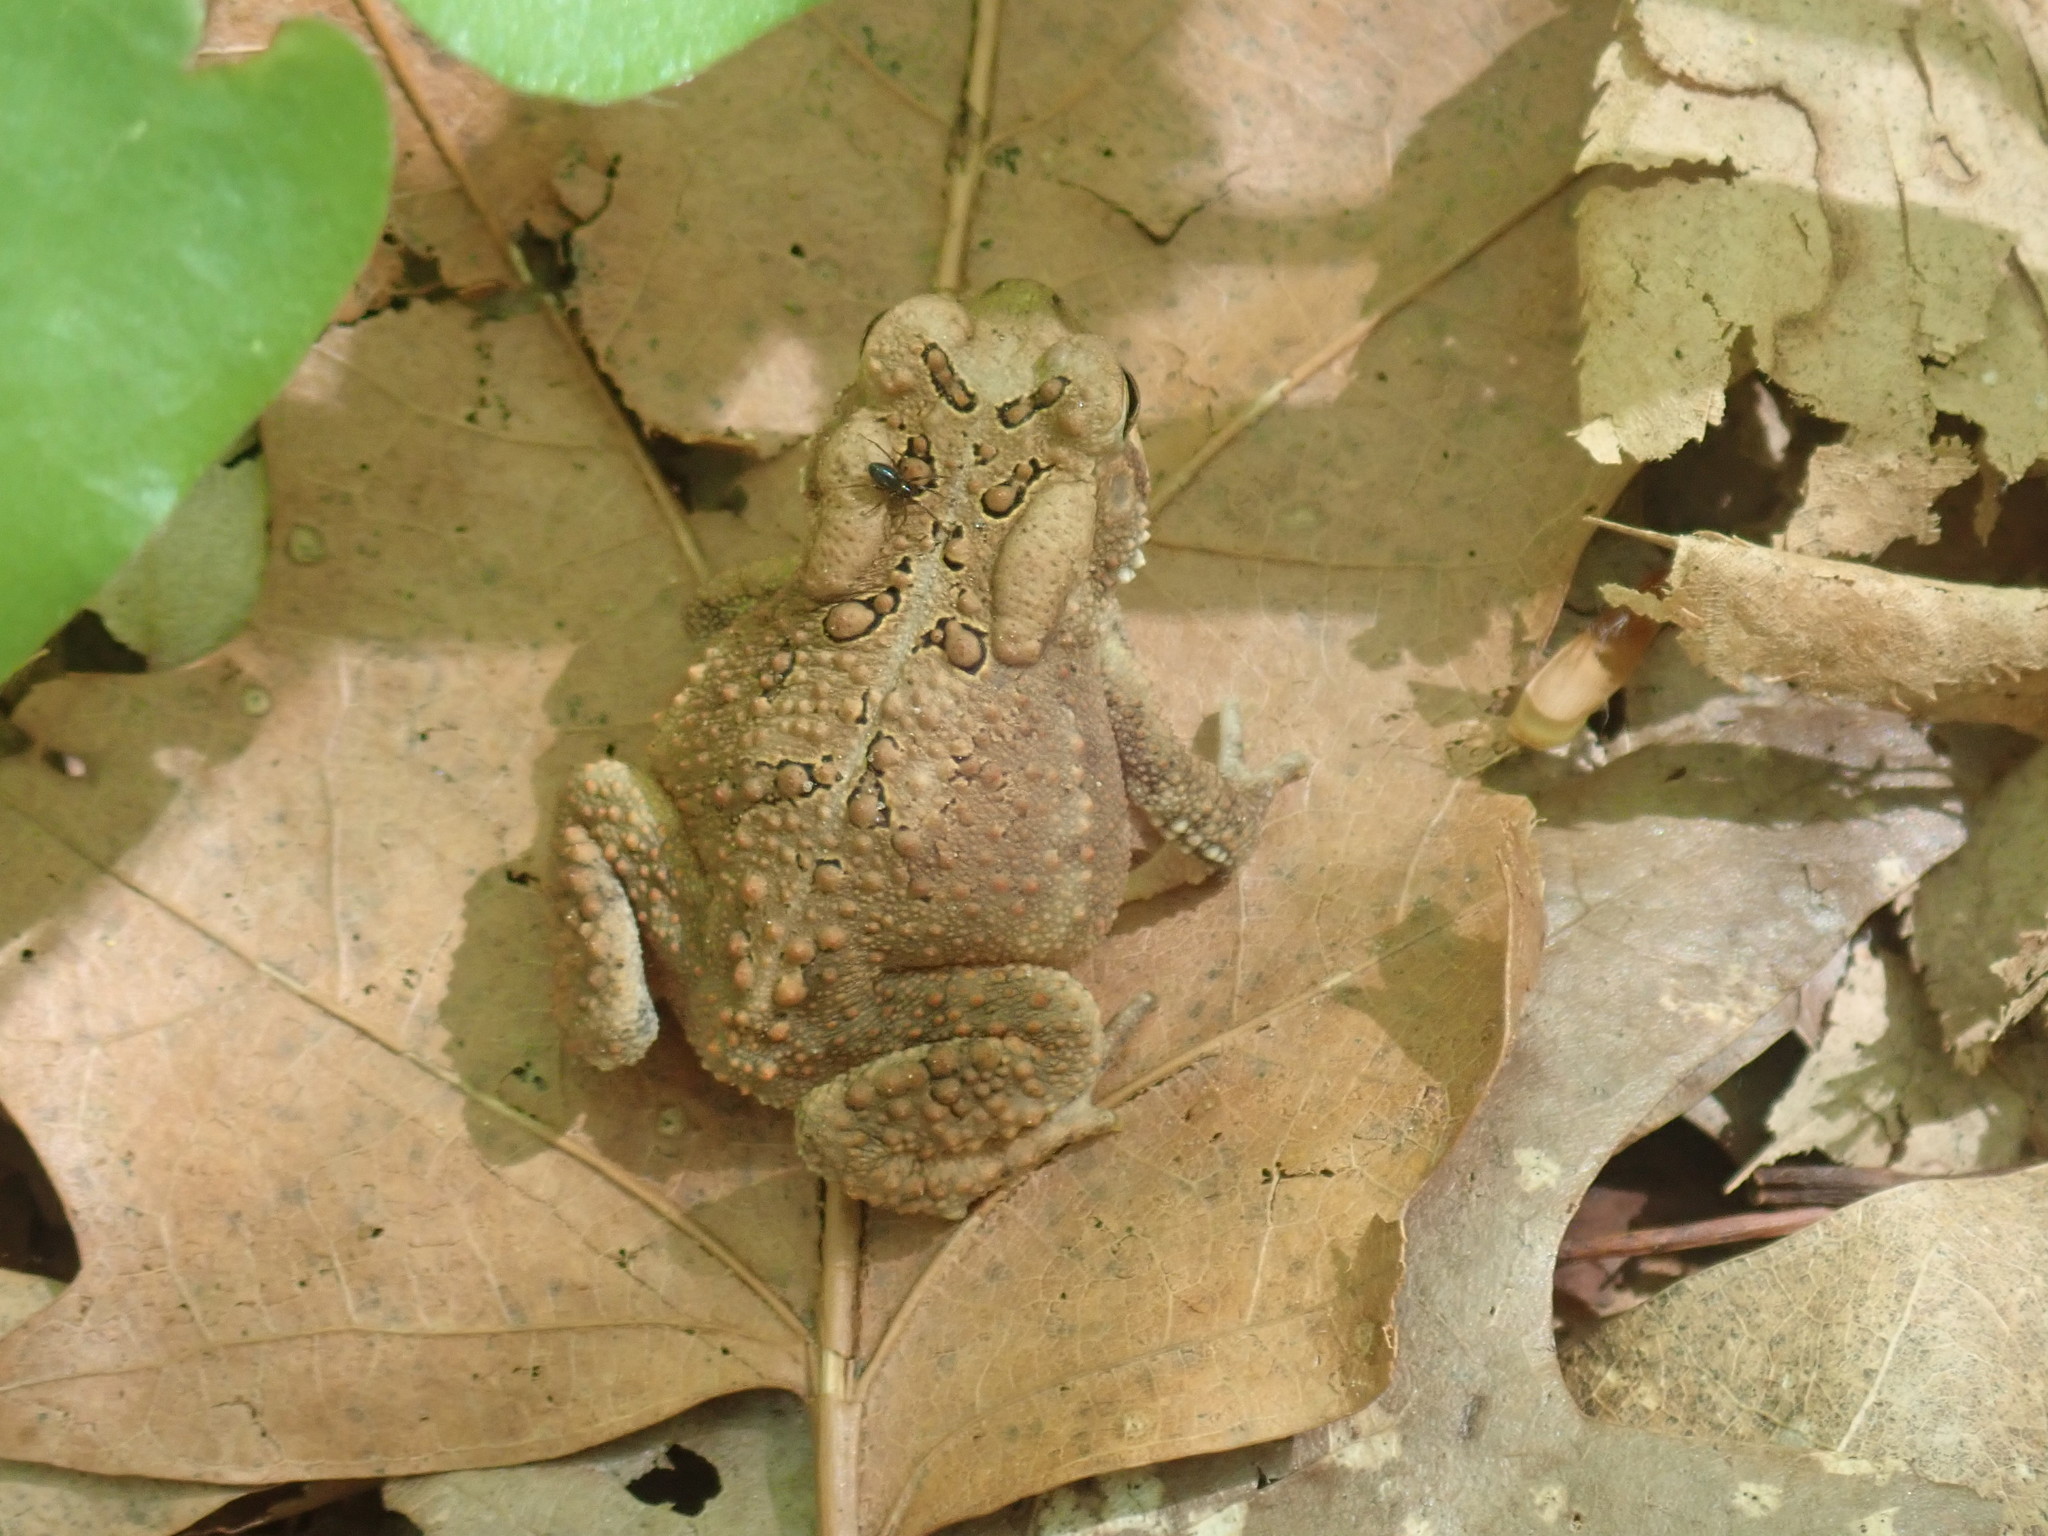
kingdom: Animalia
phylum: Chordata
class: Amphibia
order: Anura
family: Bufonidae
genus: Anaxyrus
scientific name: Anaxyrus americanus
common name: American toad
